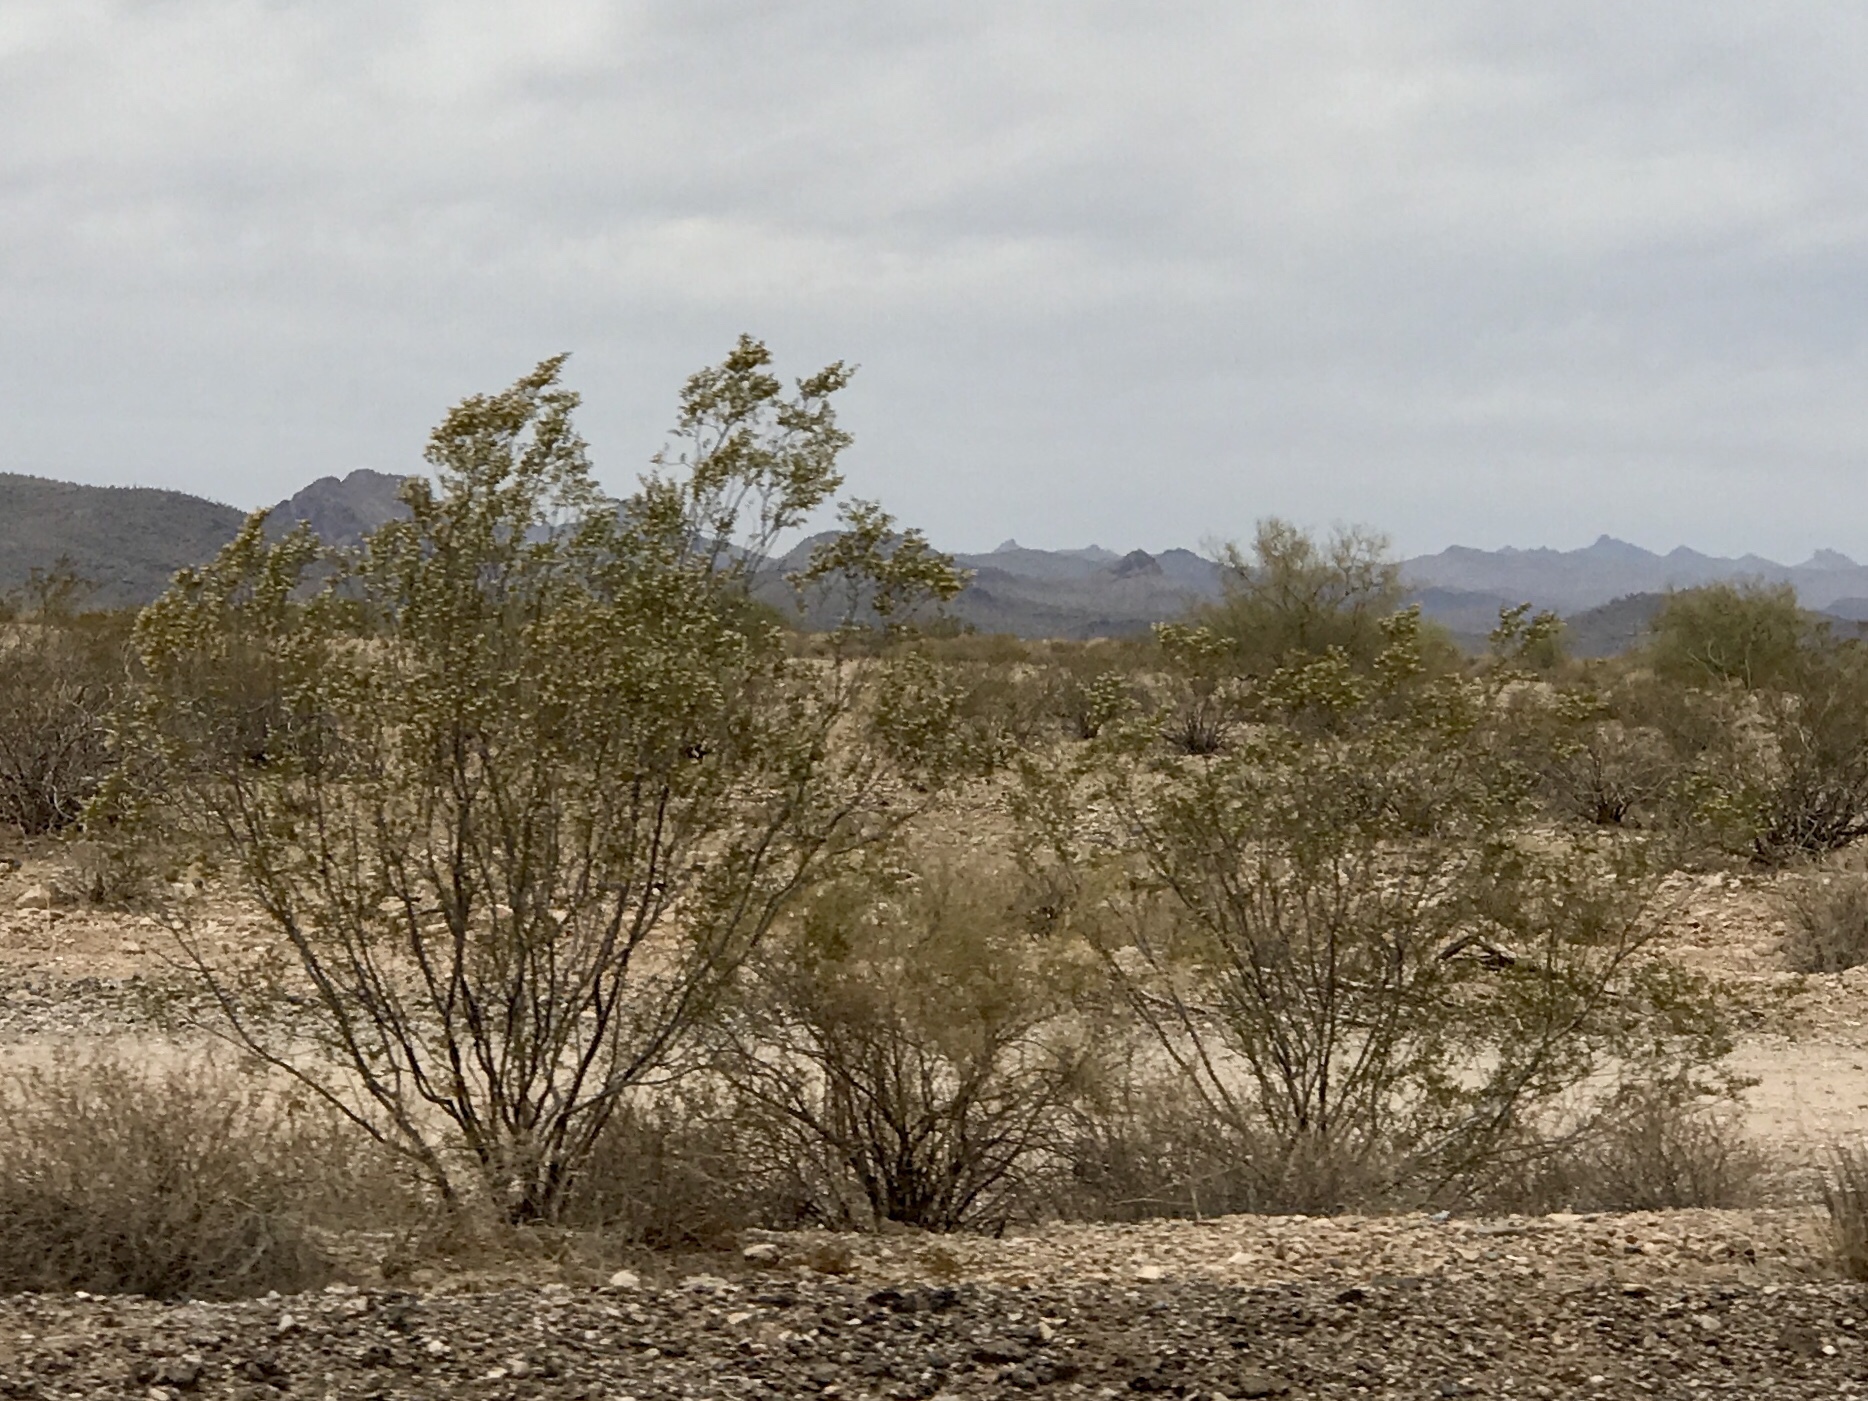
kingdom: Plantae
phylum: Tracheophyta
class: Magnoliopsida
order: Zygophyllales
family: Zygophyllaceae
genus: Larrea
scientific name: Larrea tridentata
